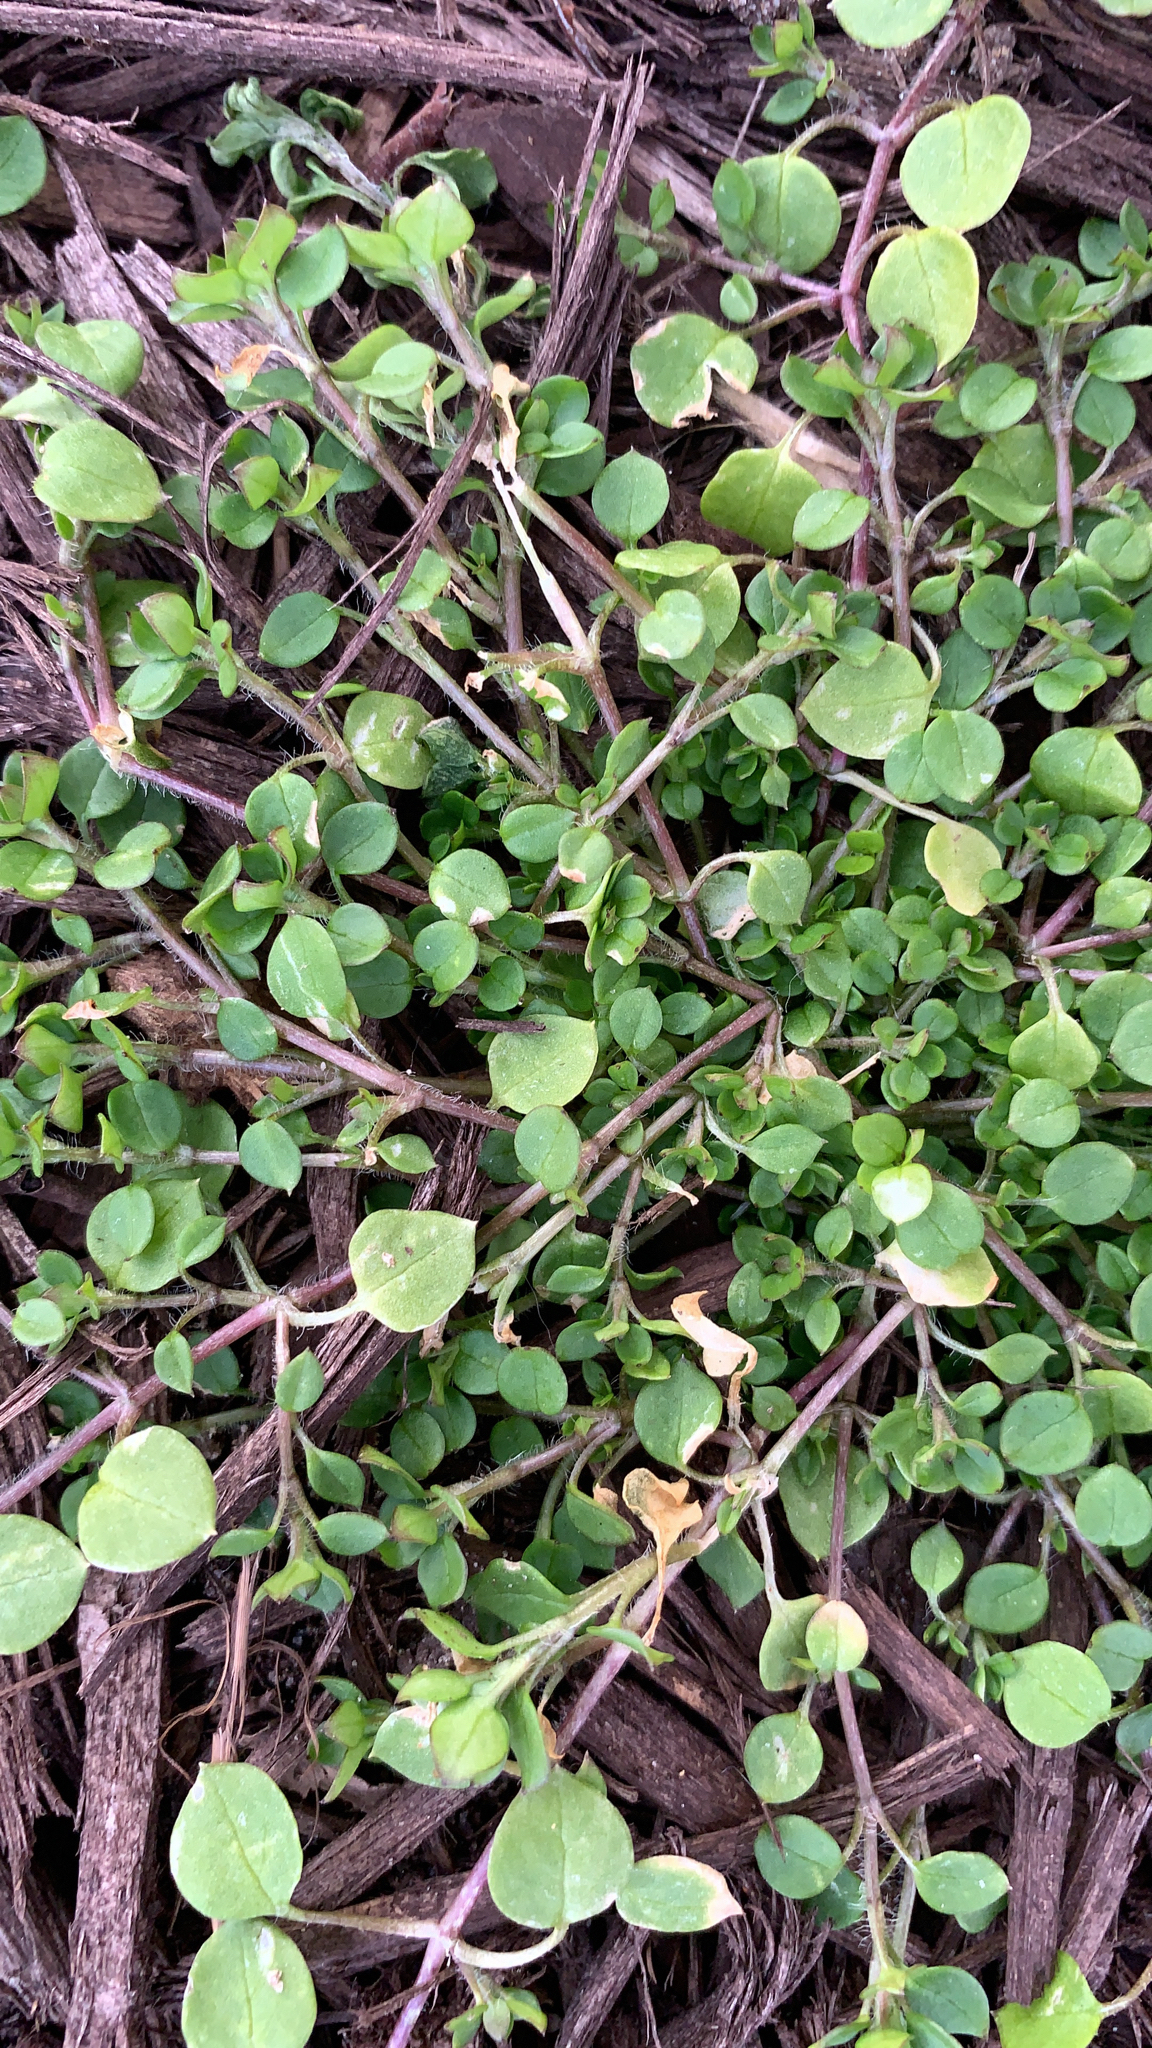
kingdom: Plantae
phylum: Tracheophyta
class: Magnoliopsida
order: Caryophyllales
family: Caryophyllaceae
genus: Stellaria
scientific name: Stellaria media
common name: Common chickweed
